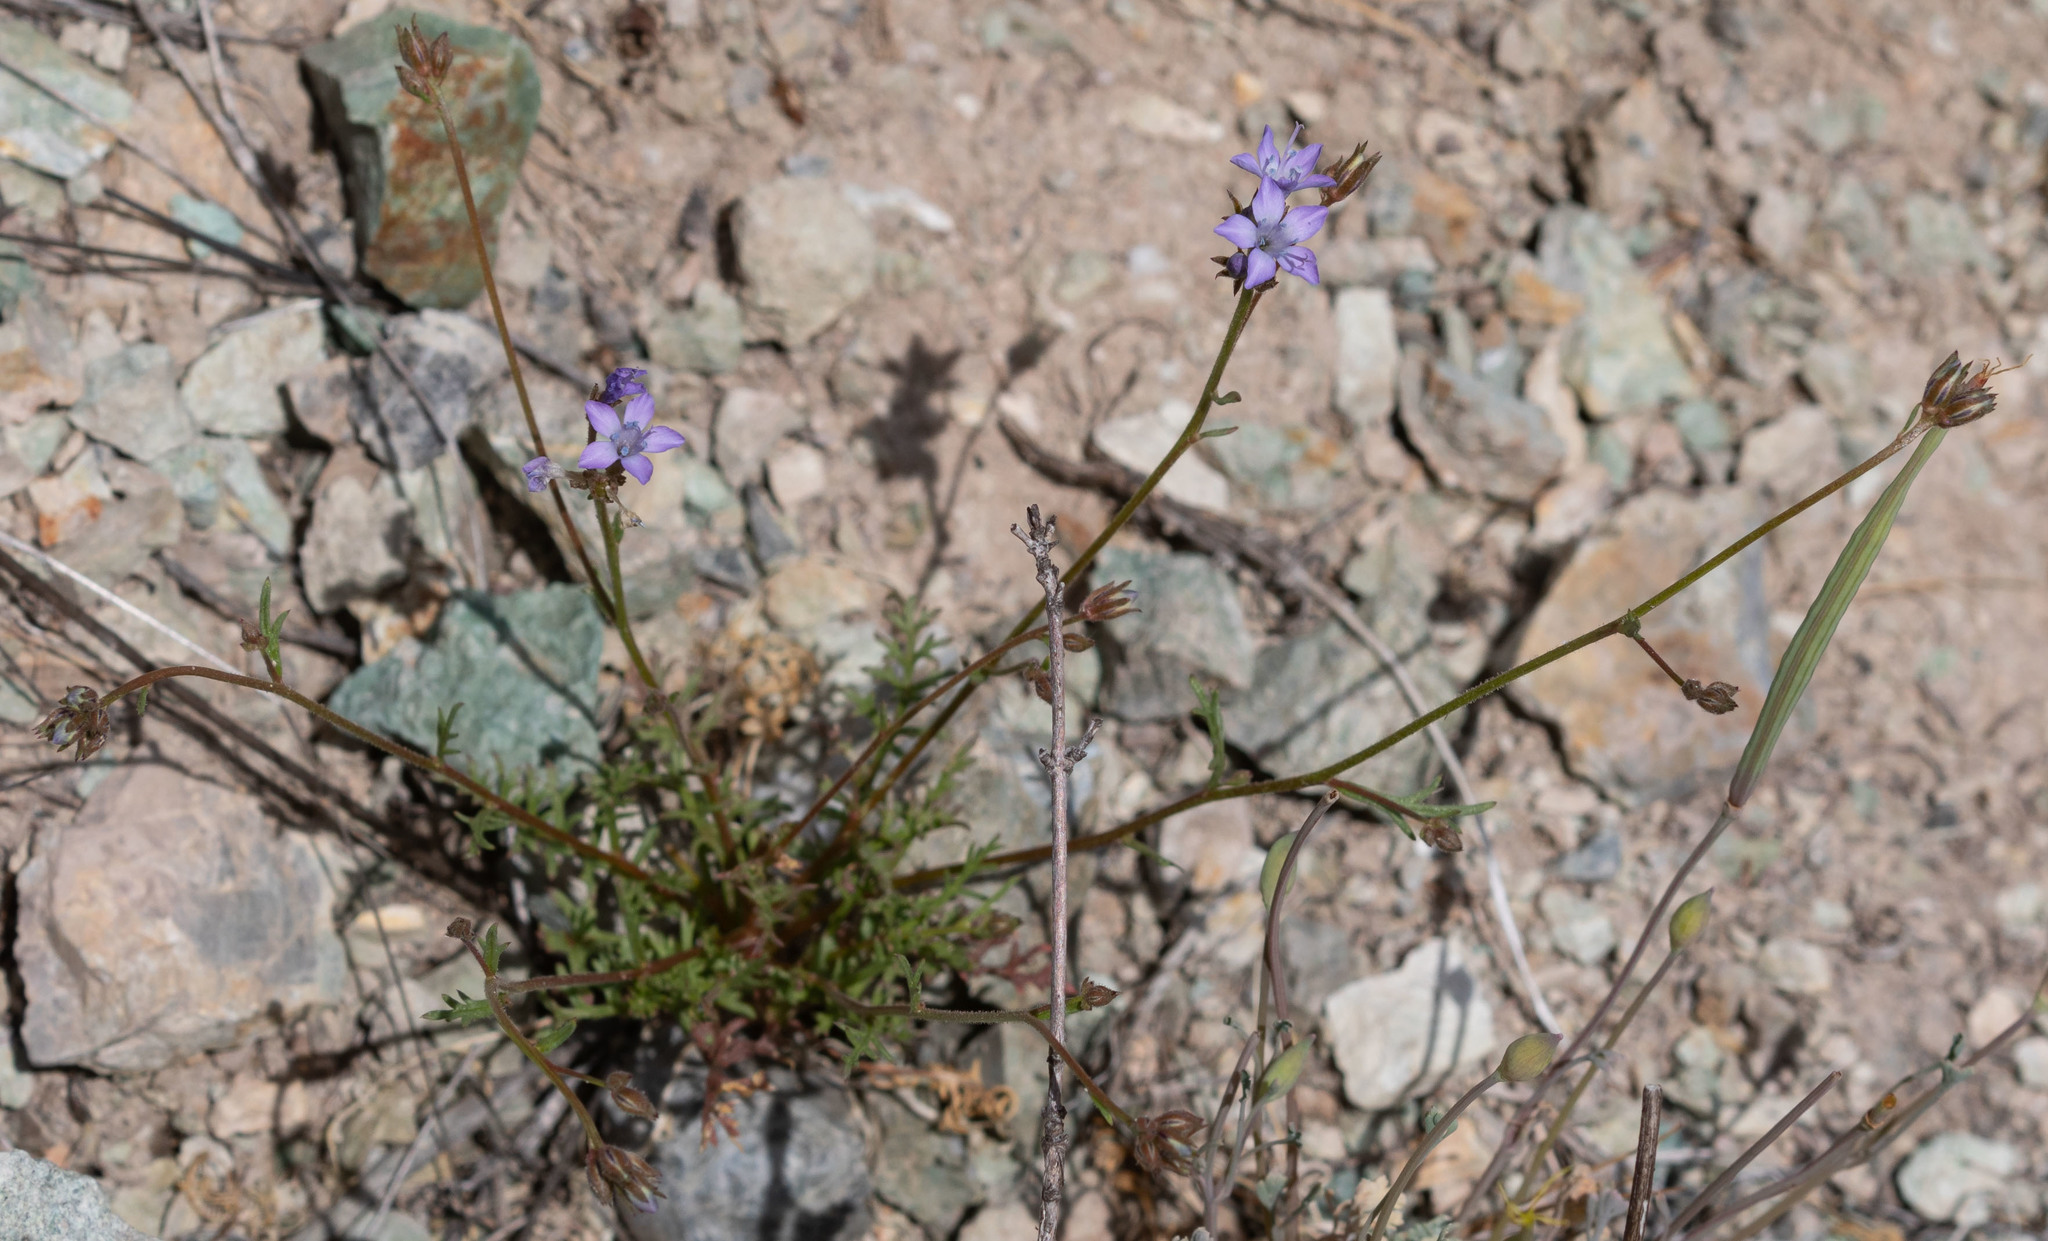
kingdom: Plantae
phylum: Tracheophyta
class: Magnoliopsida
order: Ericales
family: Polemoniaceae
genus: Gilia
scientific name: Gilia achilleifolia
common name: California gily-flower
